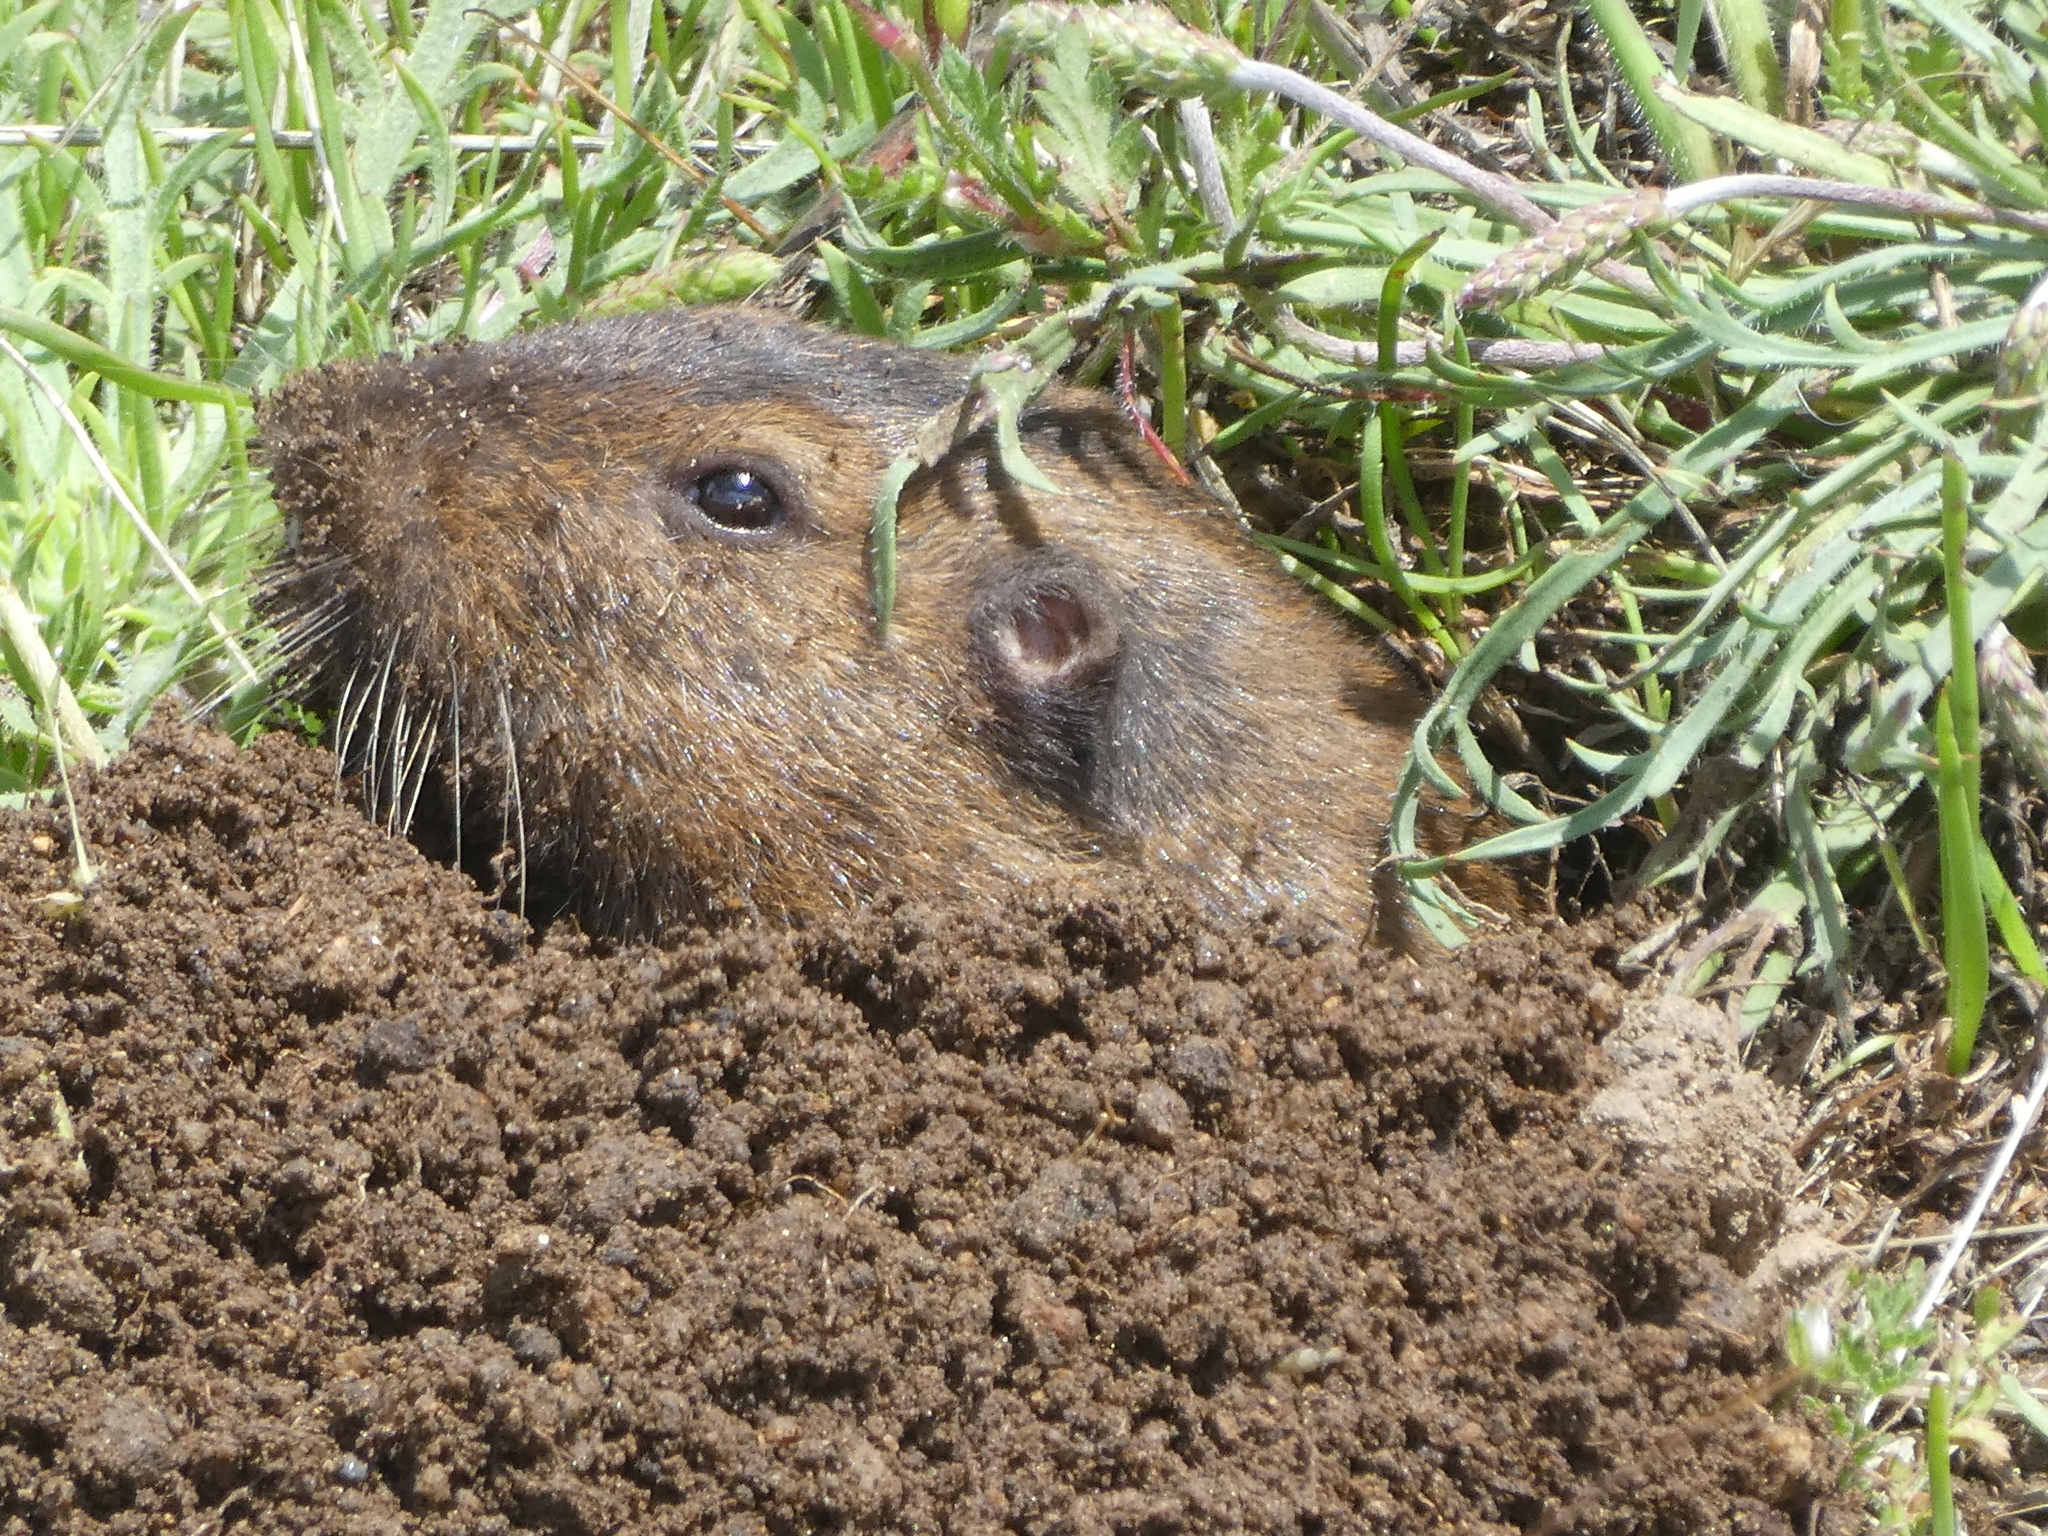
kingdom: Animalia
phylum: Chordata
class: Mammalia
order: Rodentia
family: Geomyidae
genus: Thomomys
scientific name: Thomomys bottae
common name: Botta's pocket gopher
